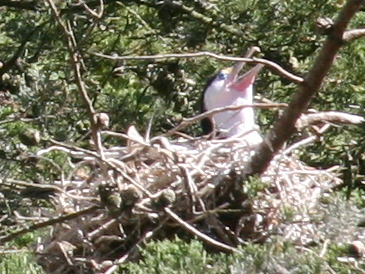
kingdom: Animalia
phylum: Chordata
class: Aves
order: Suliformes
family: Phalacrocoracidae
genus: Phalacrocorax
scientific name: Phalacrocorax varius
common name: Pied cormorant
